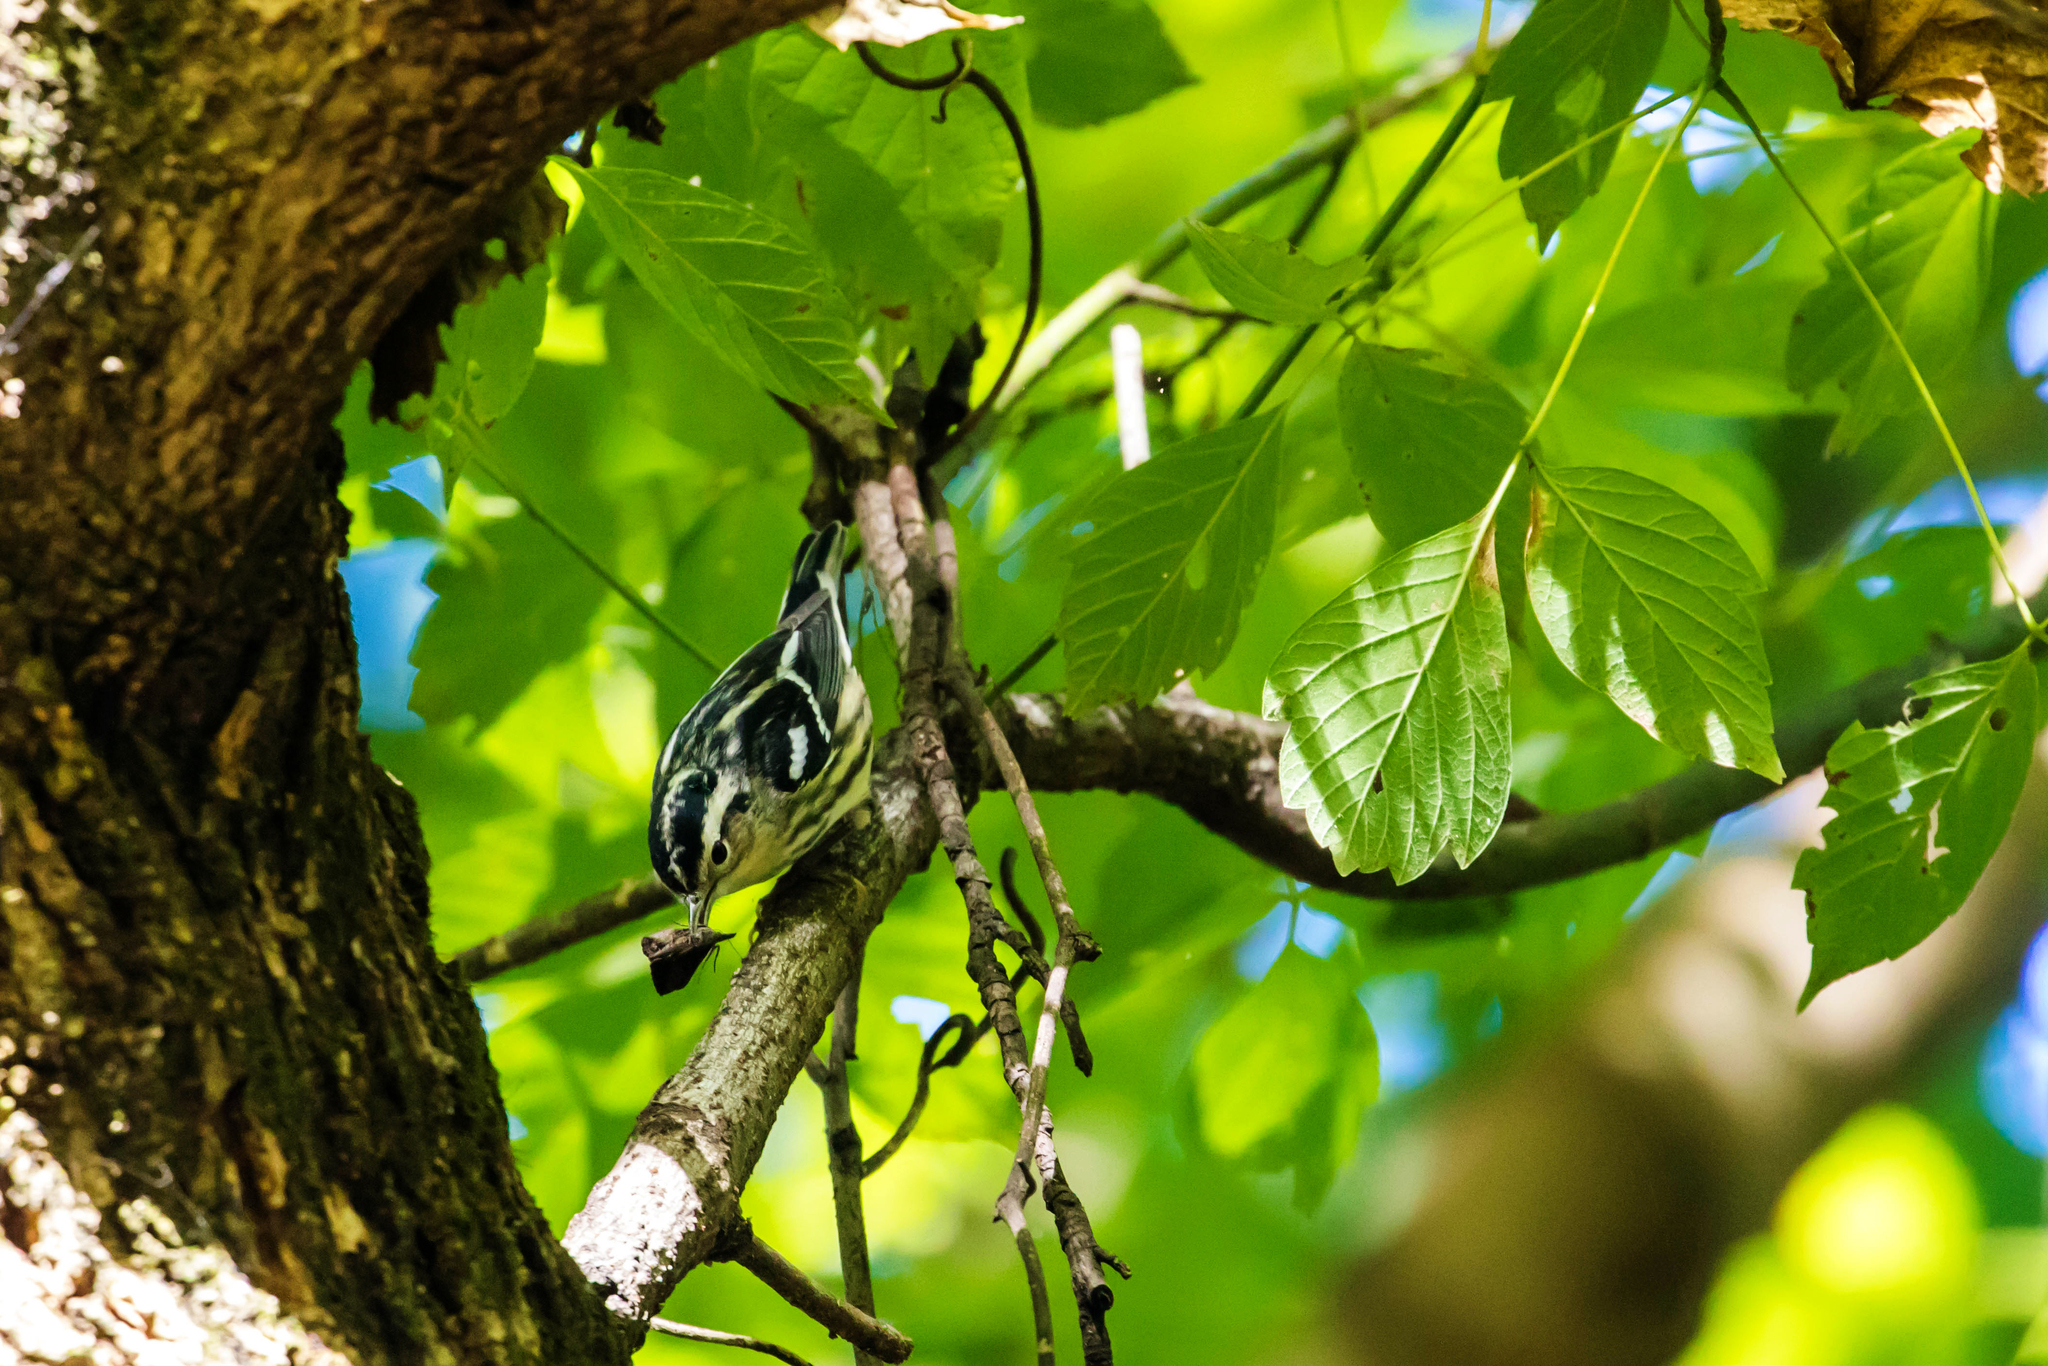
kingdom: Animalia
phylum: Chordata
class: Aves
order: Passeriformes
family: Parulidae
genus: Mniotilta
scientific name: Mniotilta varia
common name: Black-and-white warbler
